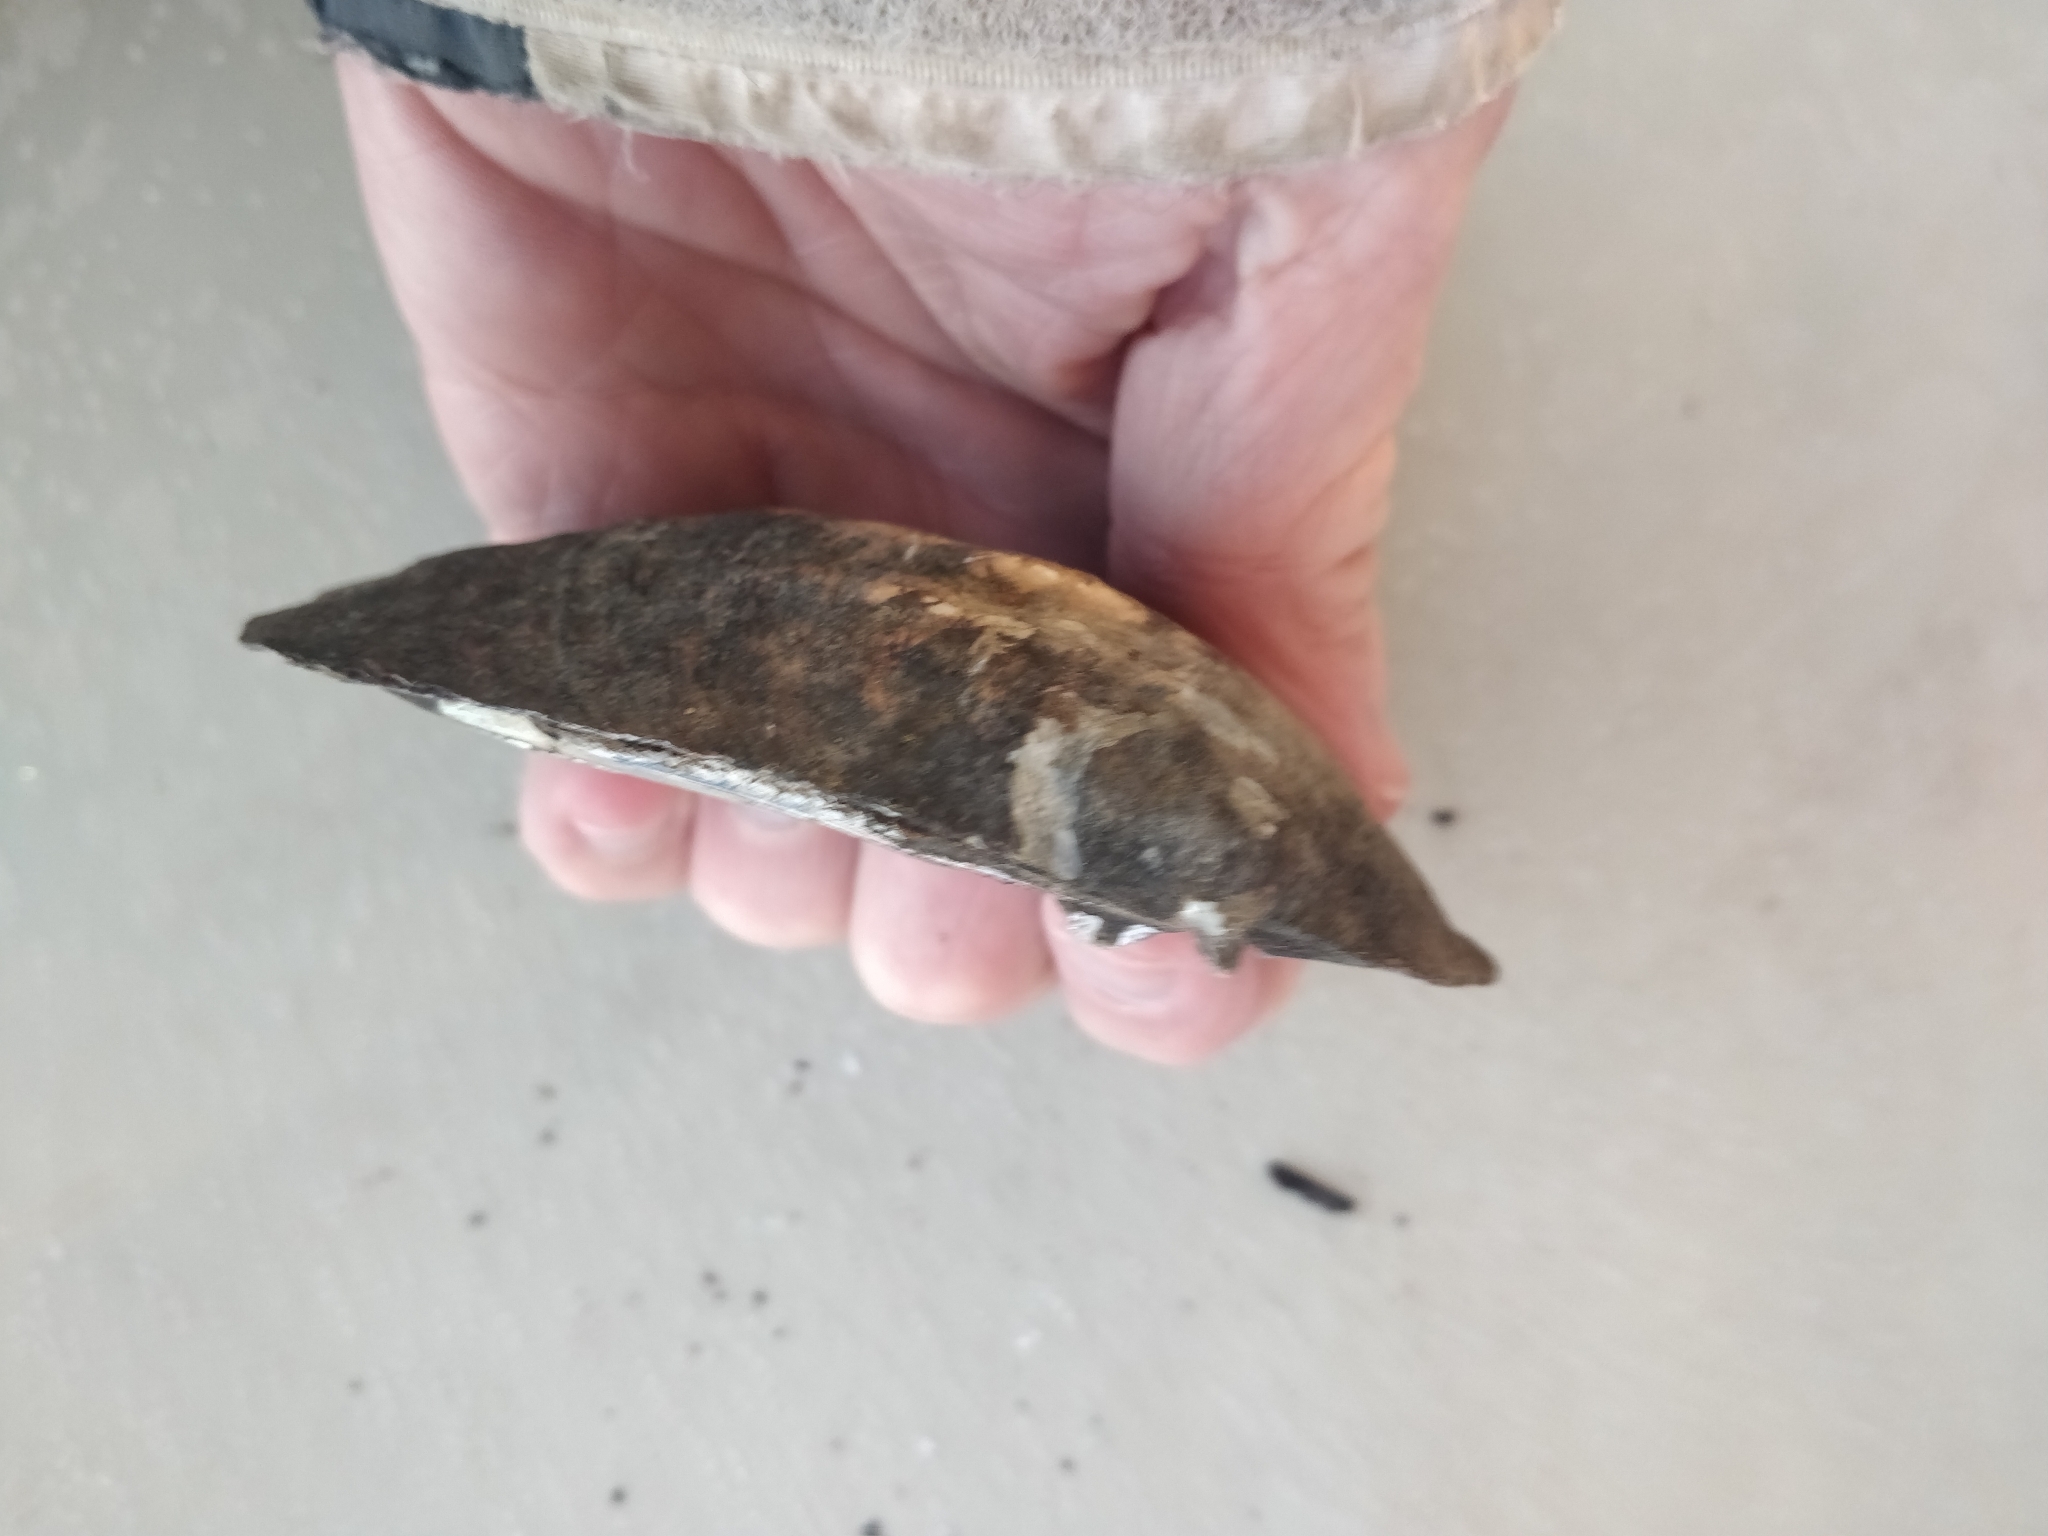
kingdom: Animalia
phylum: Mollusca
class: Bivalvia
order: Unionida
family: Unionidae
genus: Amblema
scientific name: Amblema plicata
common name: Threeridge
